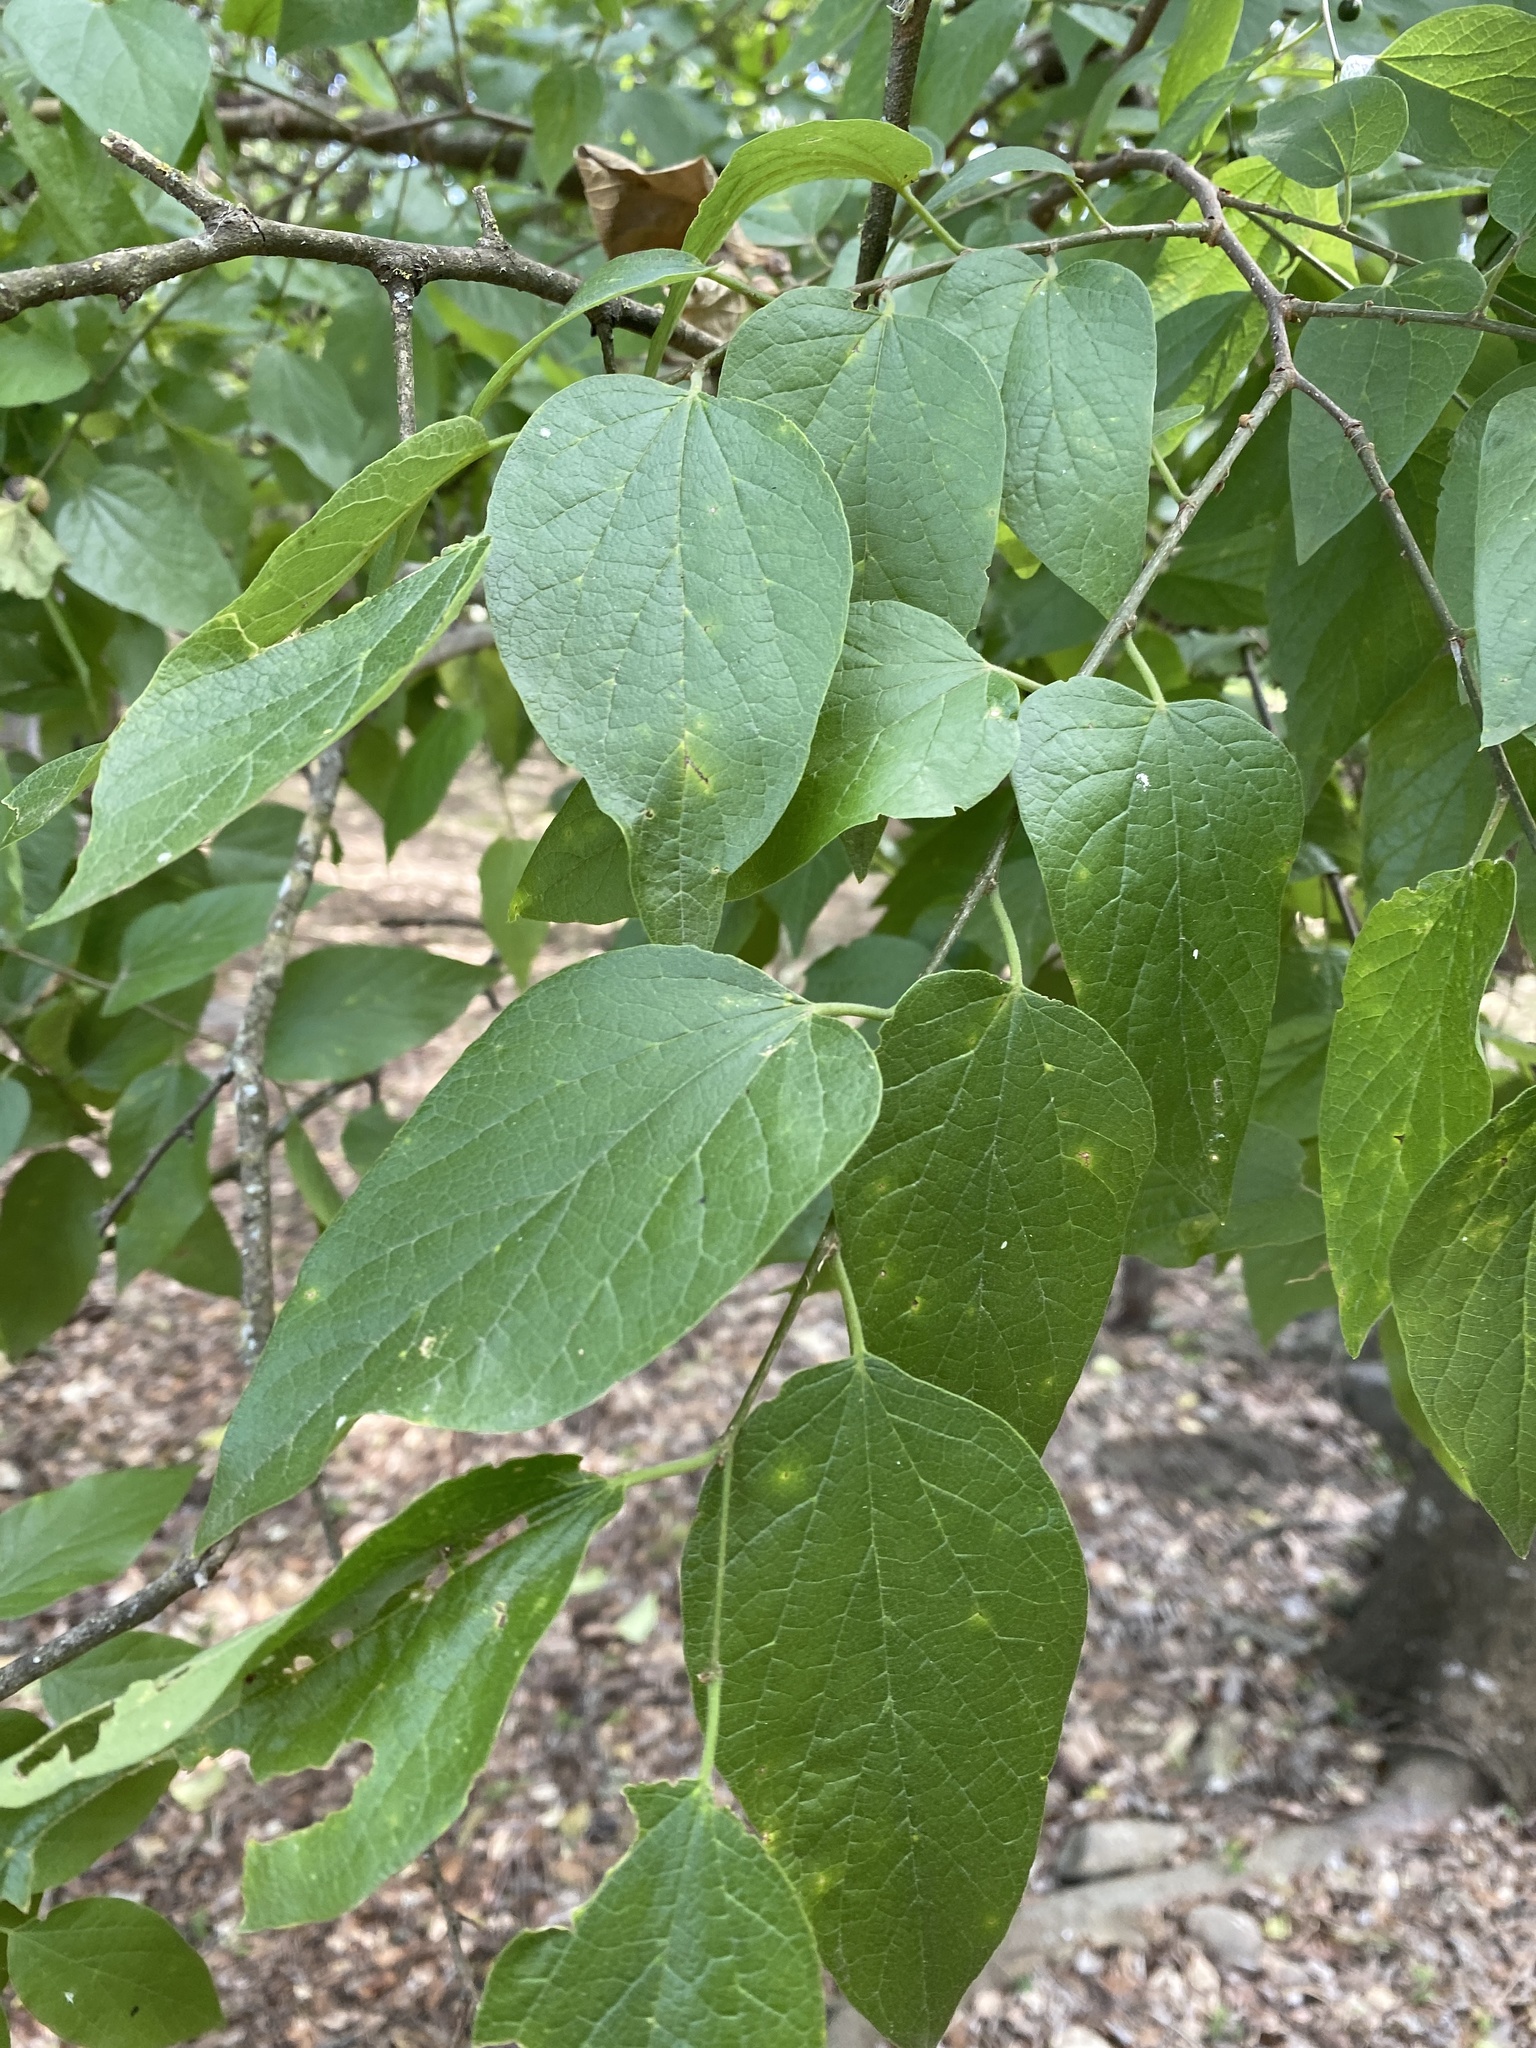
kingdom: Plantae
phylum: Tracheophyta
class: Magnoliopsida
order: Rosales
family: Cannabaceae
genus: Celtis
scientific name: Celtis laevigata
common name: Sugarberry
